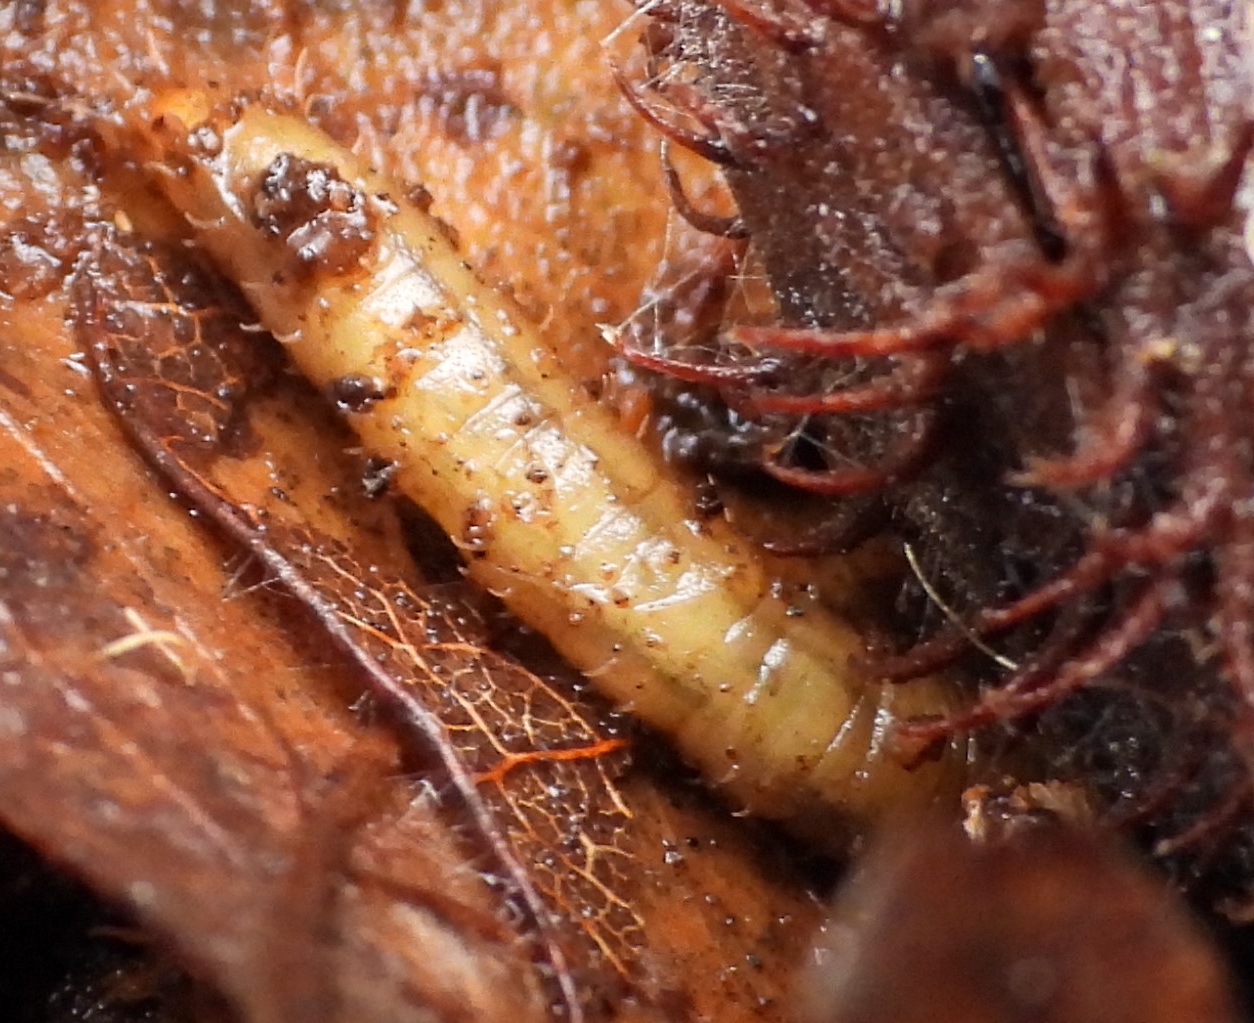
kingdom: Animalia
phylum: Arthropoda
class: Insecta
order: Diptera
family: Bibionidae
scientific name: Bibionidae
